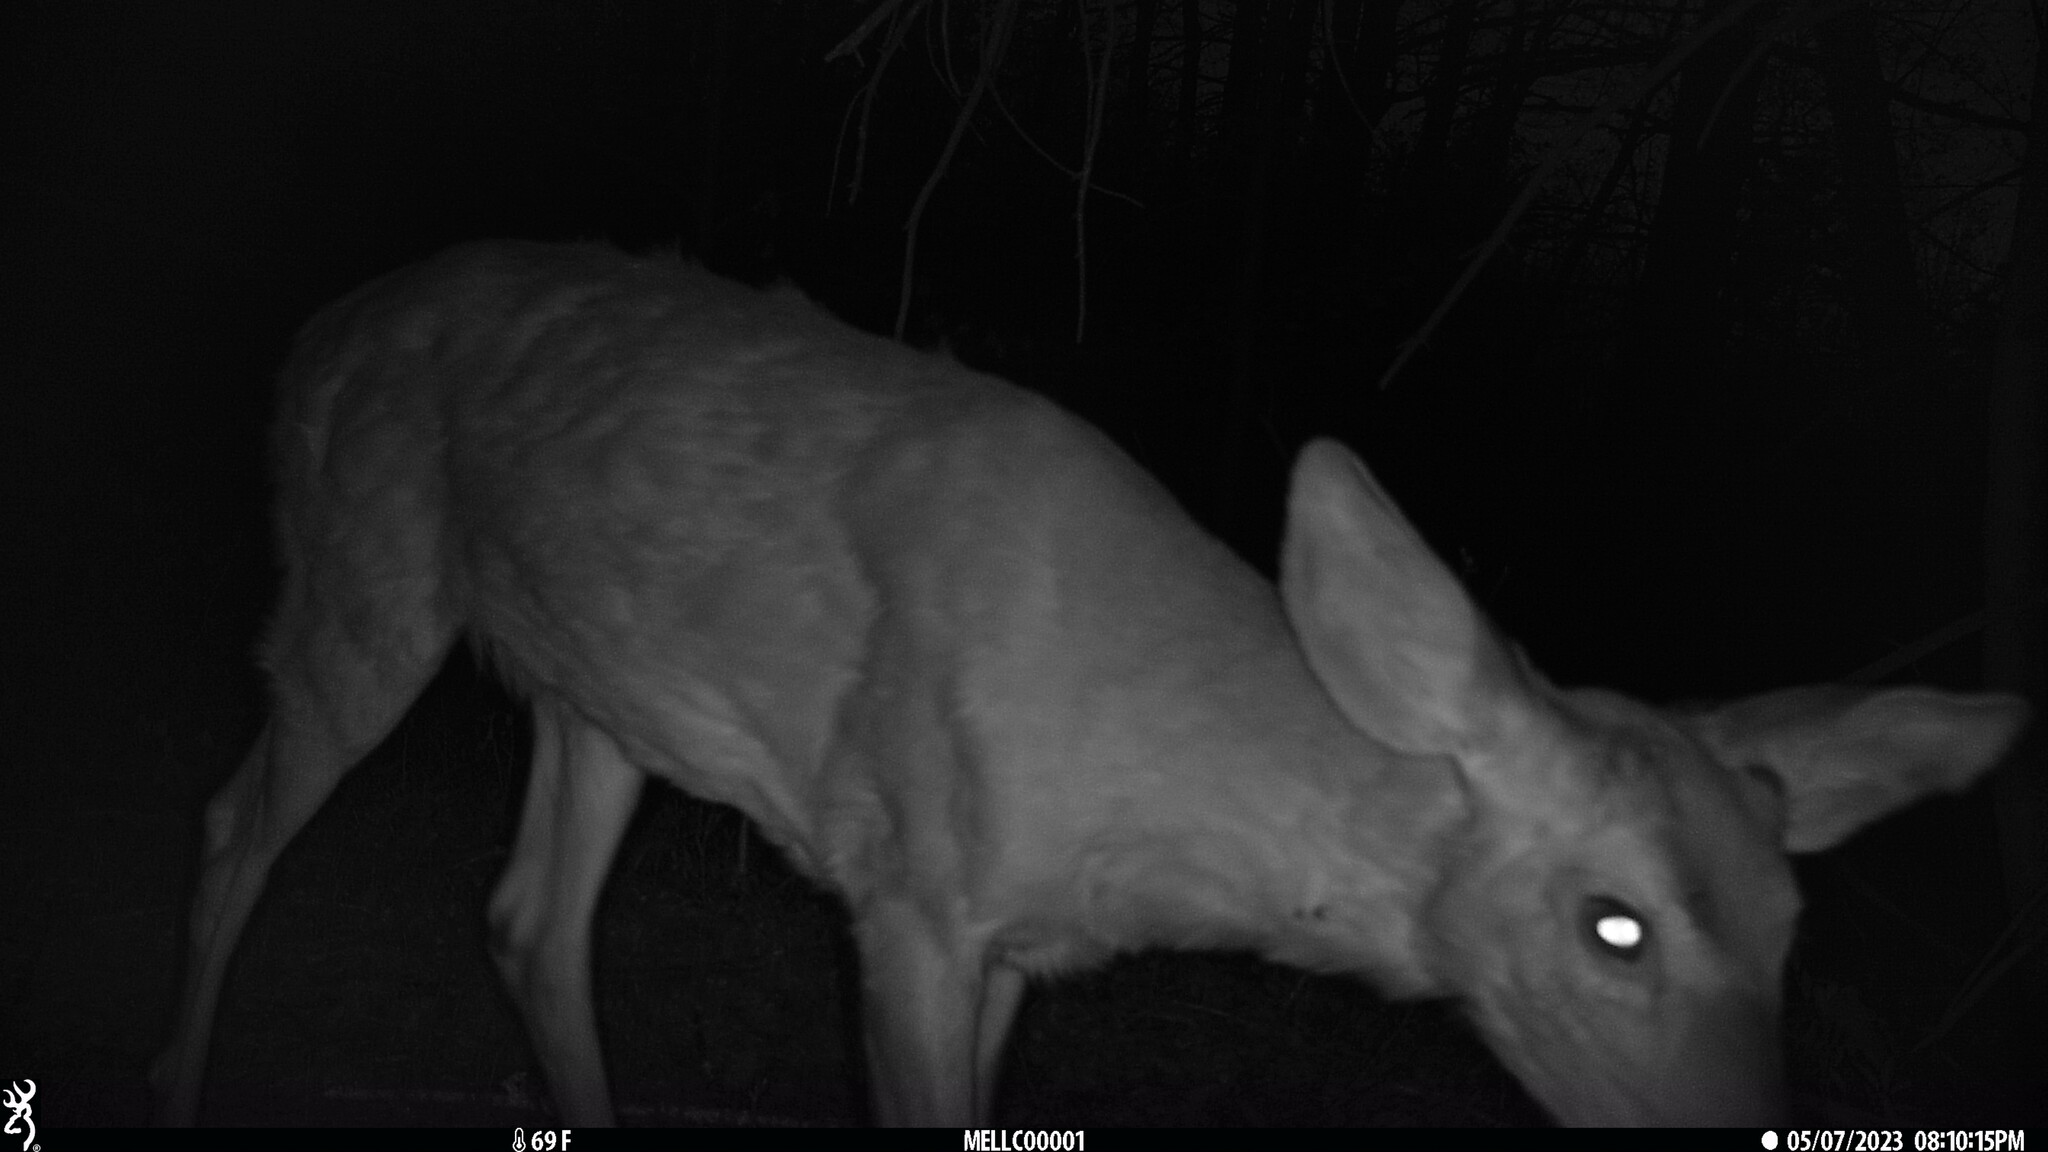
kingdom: Animalia
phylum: Chordata
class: Mammalia
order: Artiodactyla
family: Cervidae
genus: Odocoileus
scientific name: Odocoileus virginianus
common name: White-tailed deer
